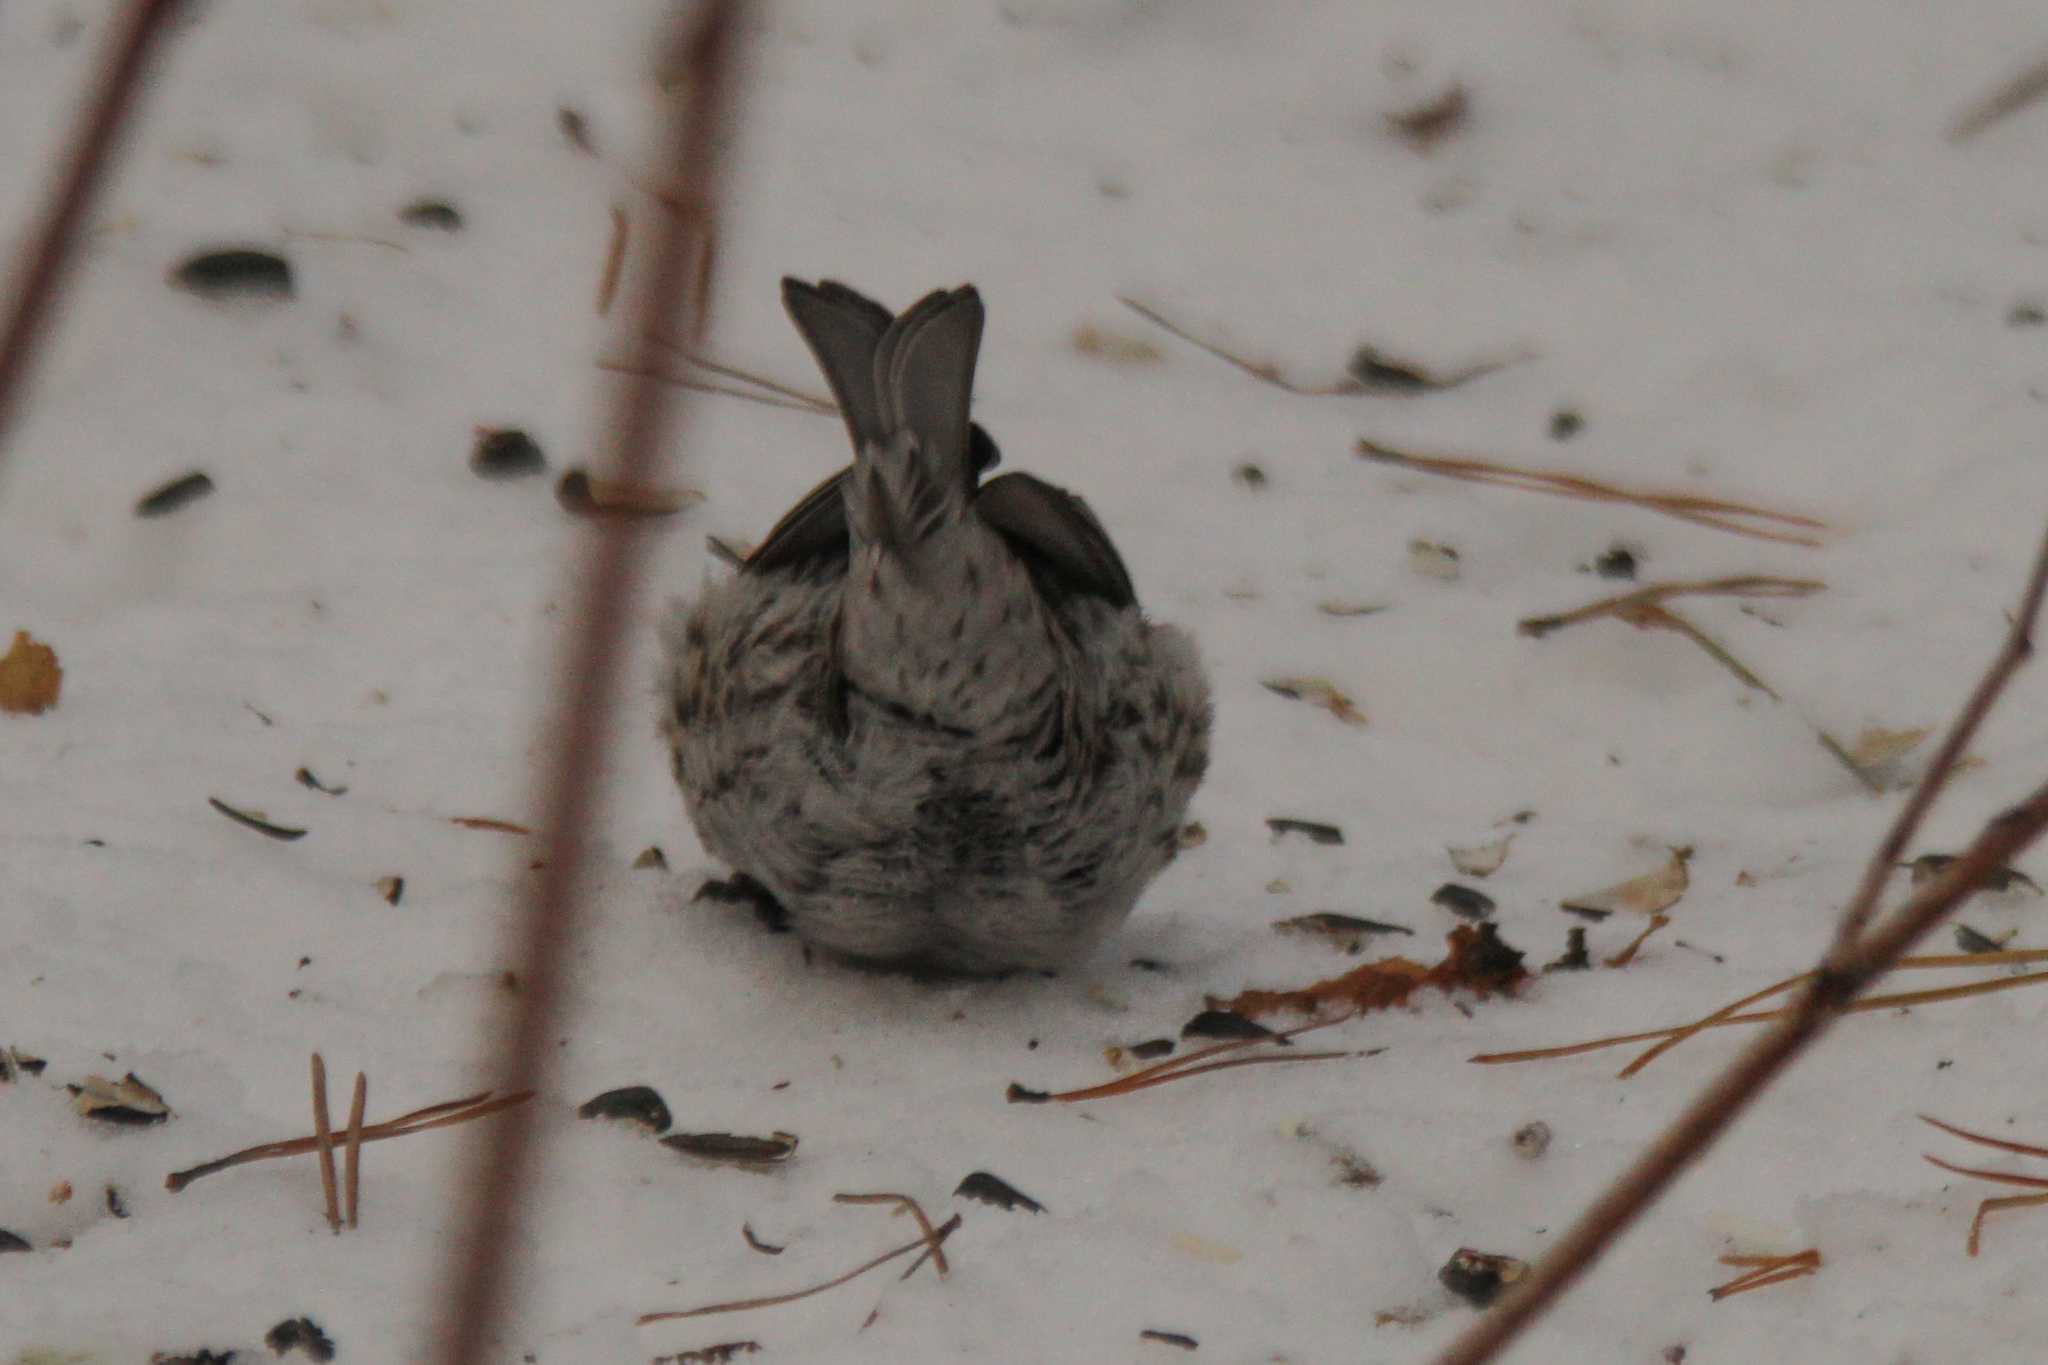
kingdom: Animalia
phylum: Chordata
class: Aves
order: Passeriformes
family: Fringillidae
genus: Acanthis
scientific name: Acanthis flammea
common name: Common redpoll
